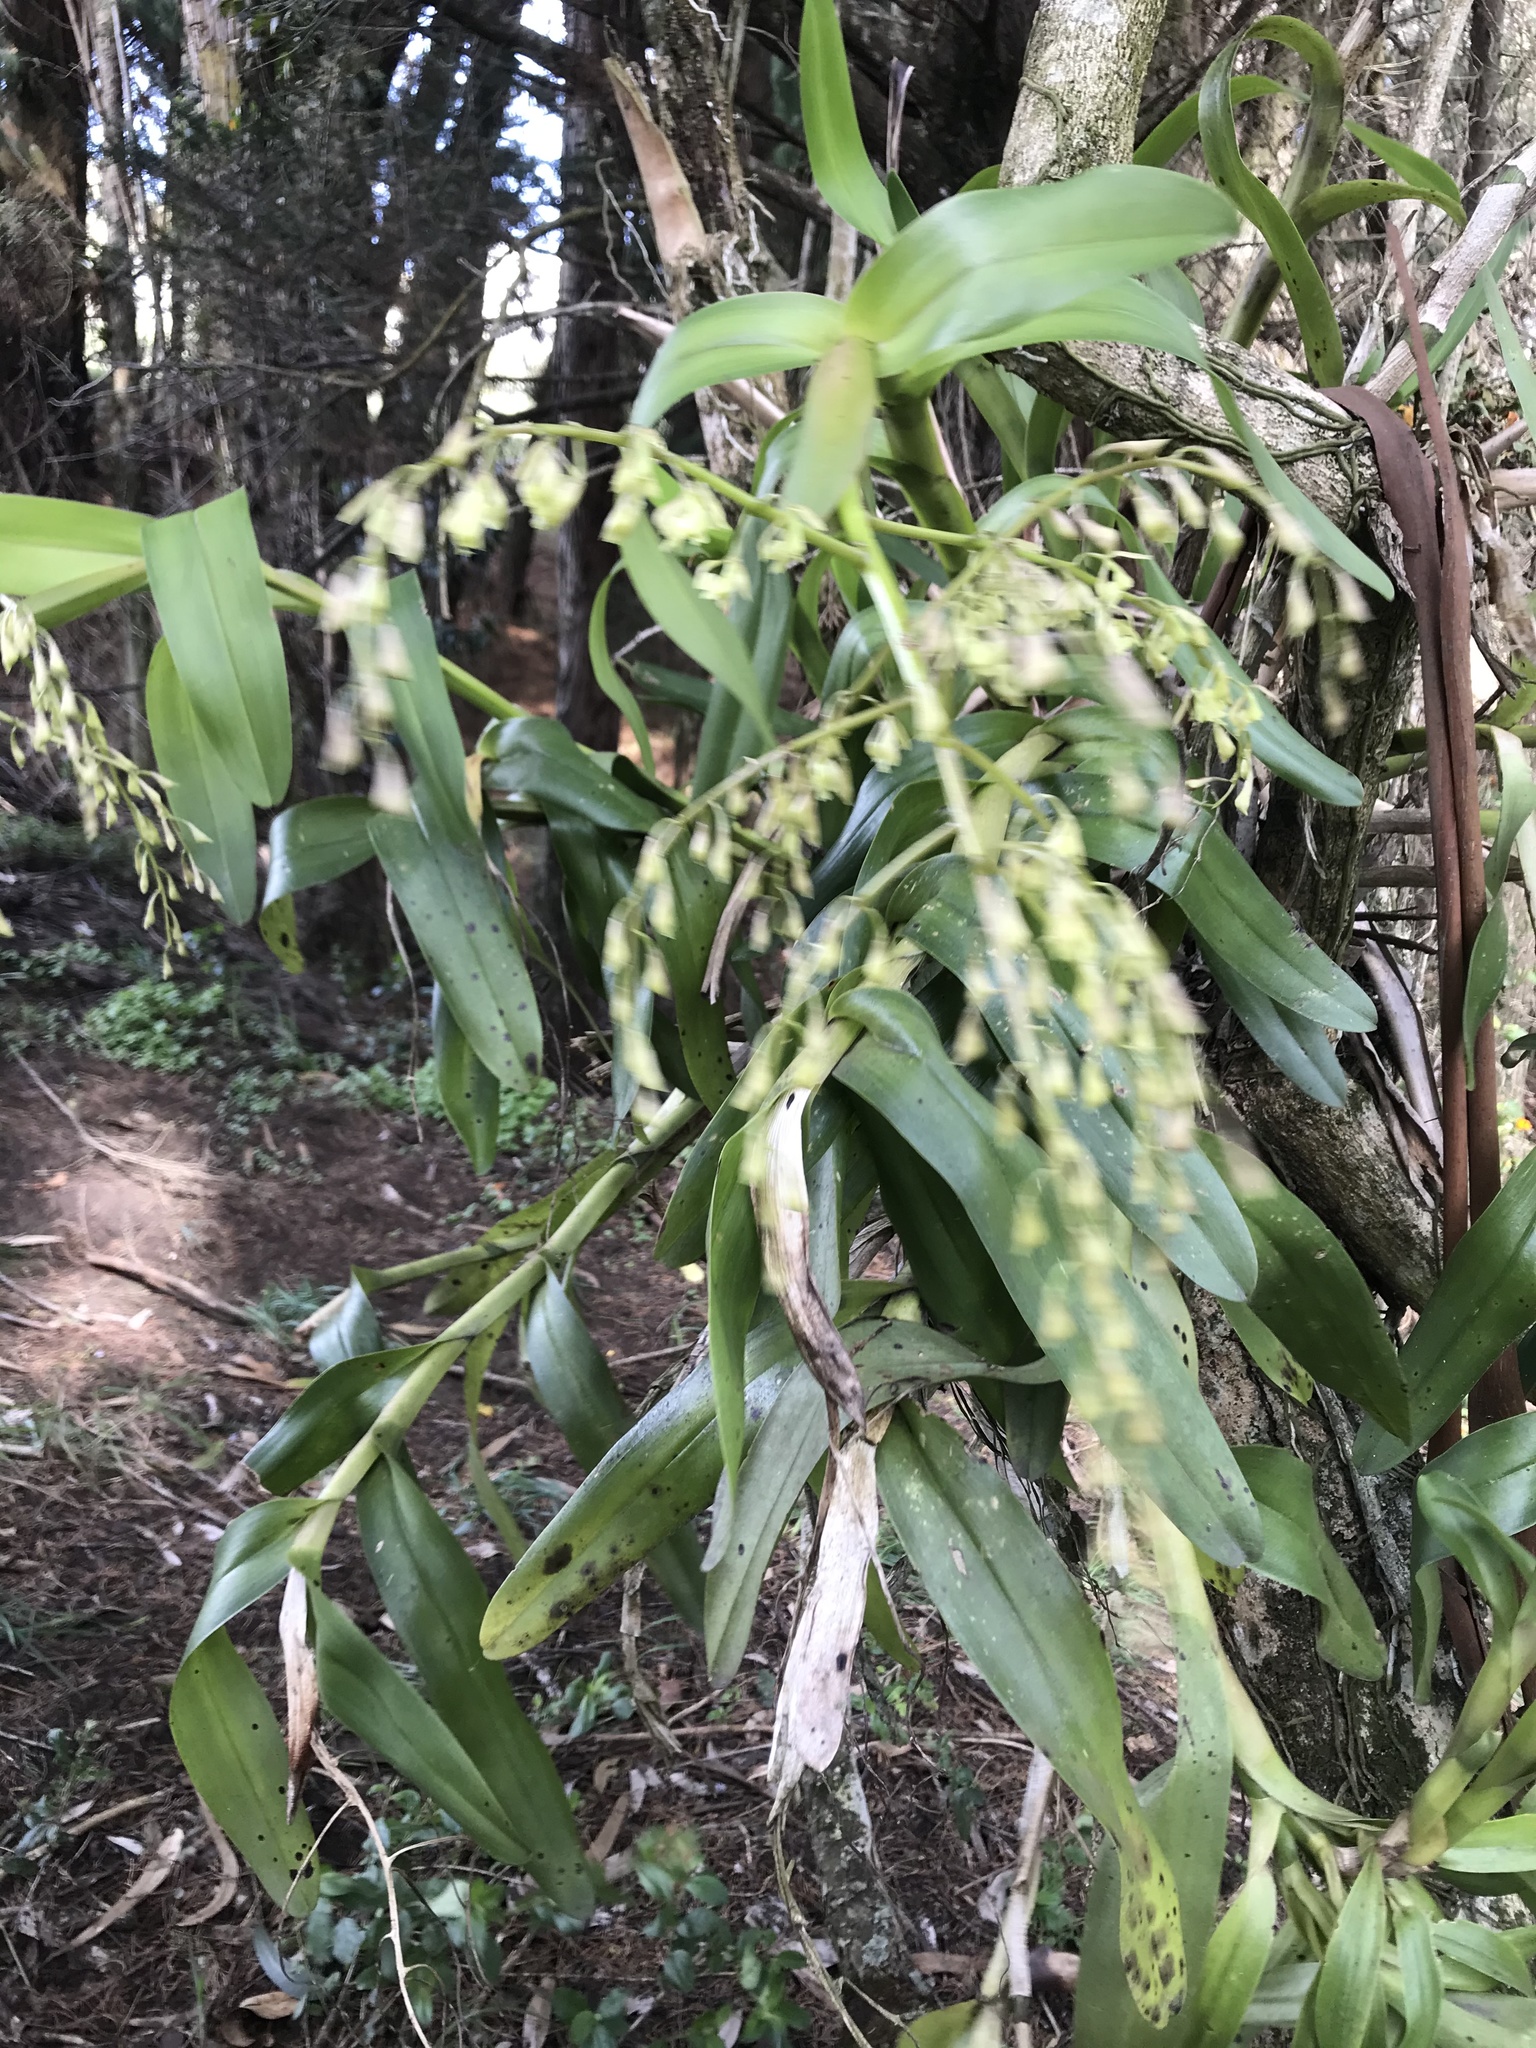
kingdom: Plantae
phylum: Tracheophyta
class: Liliopsida
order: Asparagales
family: Orchidaceae
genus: Epidendrum
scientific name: Epidendrum excisum
